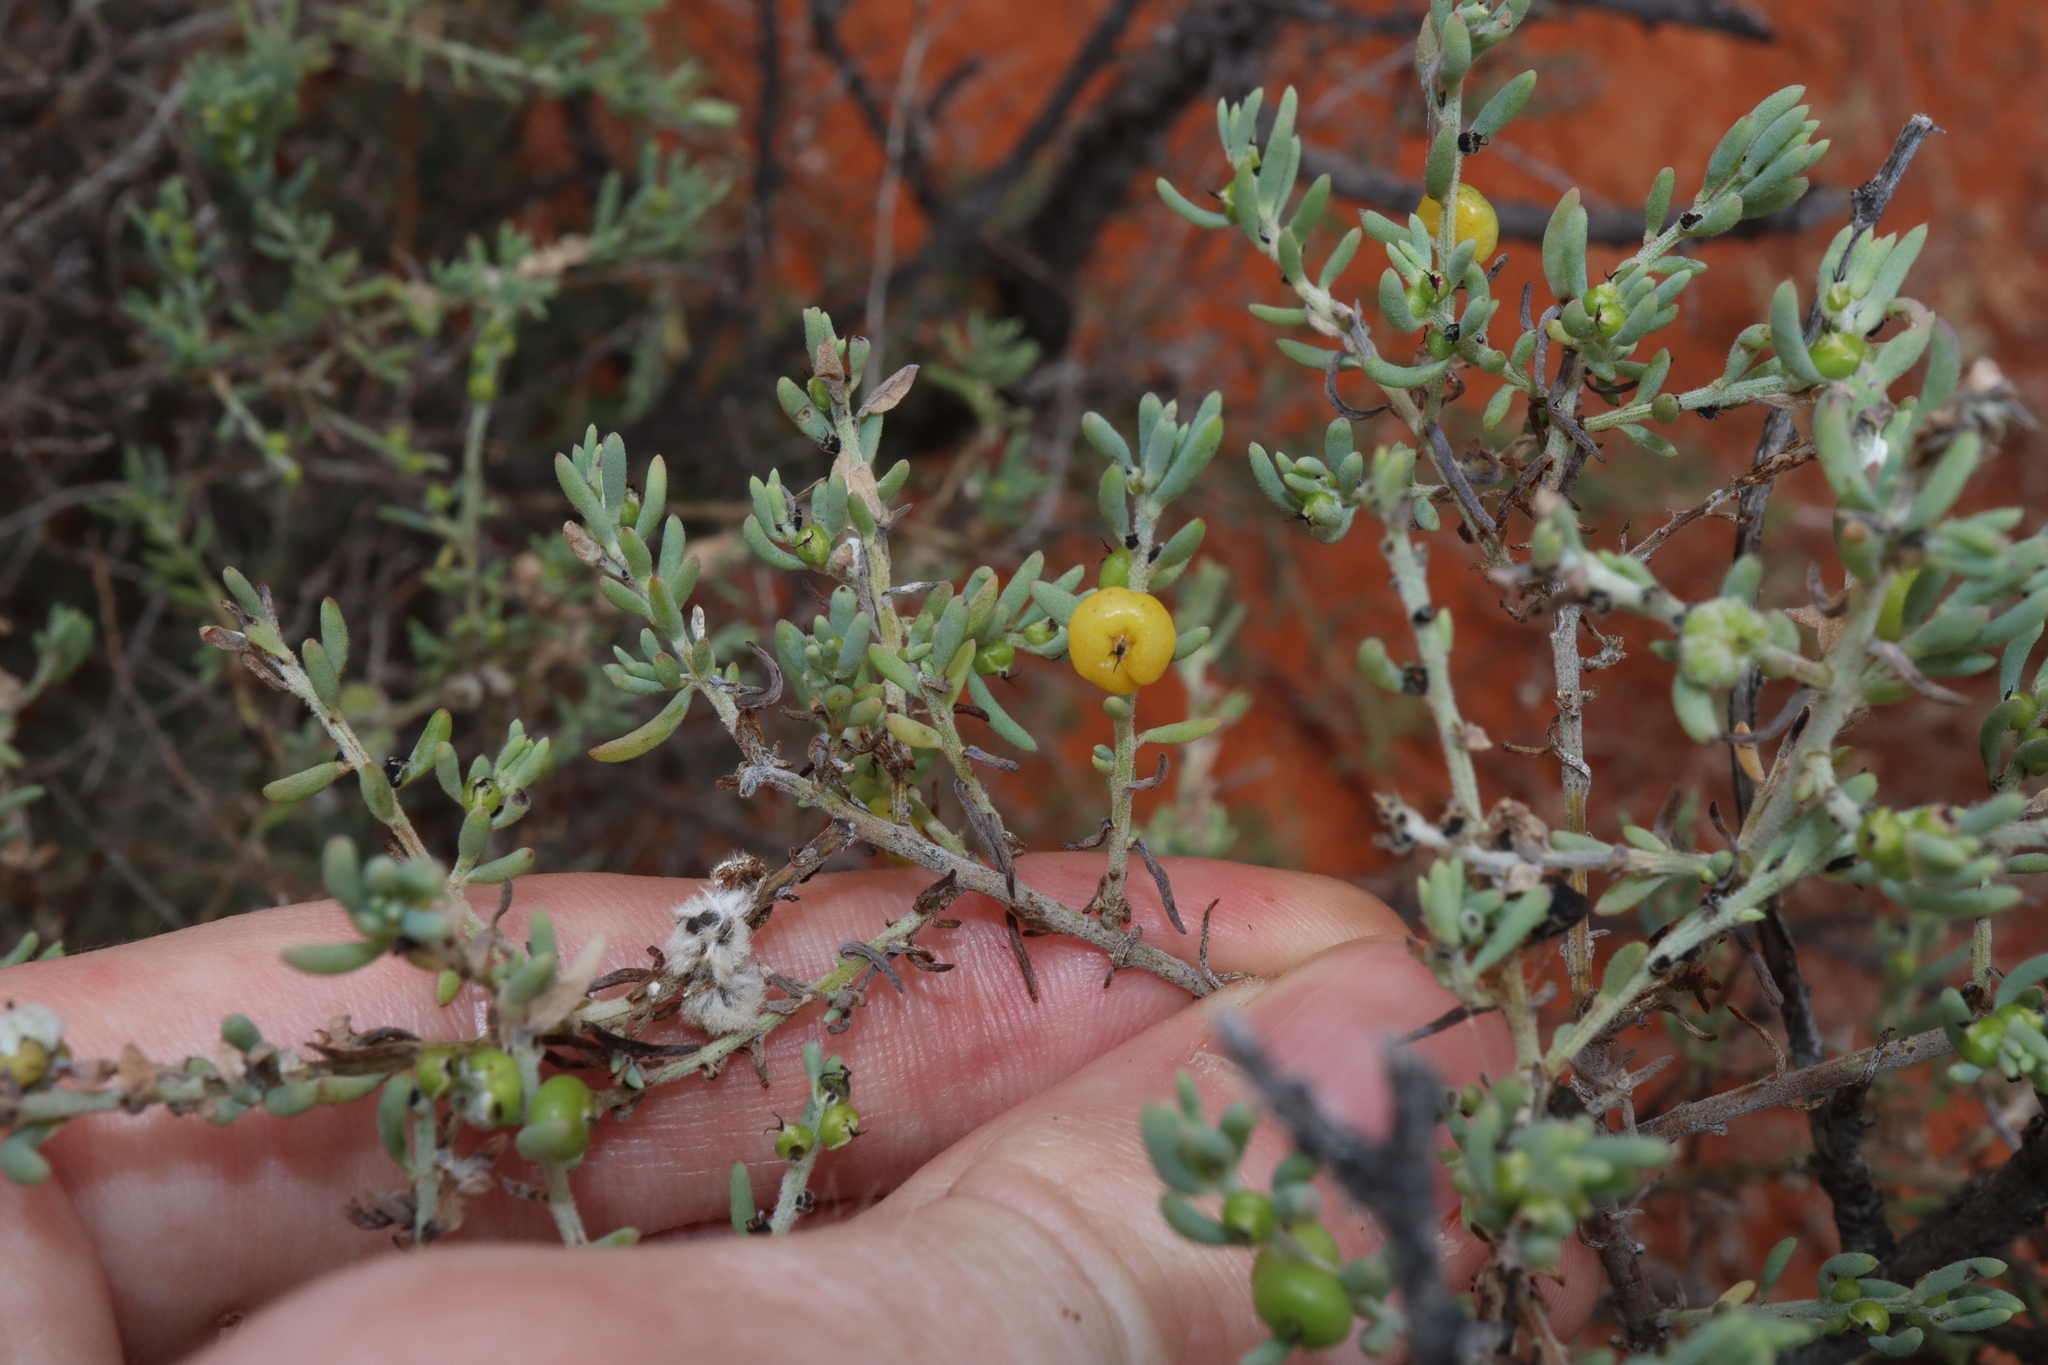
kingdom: Plantae
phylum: Tracheophyta
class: Magnoliopsida
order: Caryophyllales
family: Amaranthaceae
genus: Enchylaena
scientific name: Enchylaena tomentosa
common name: Ruby saltbush
